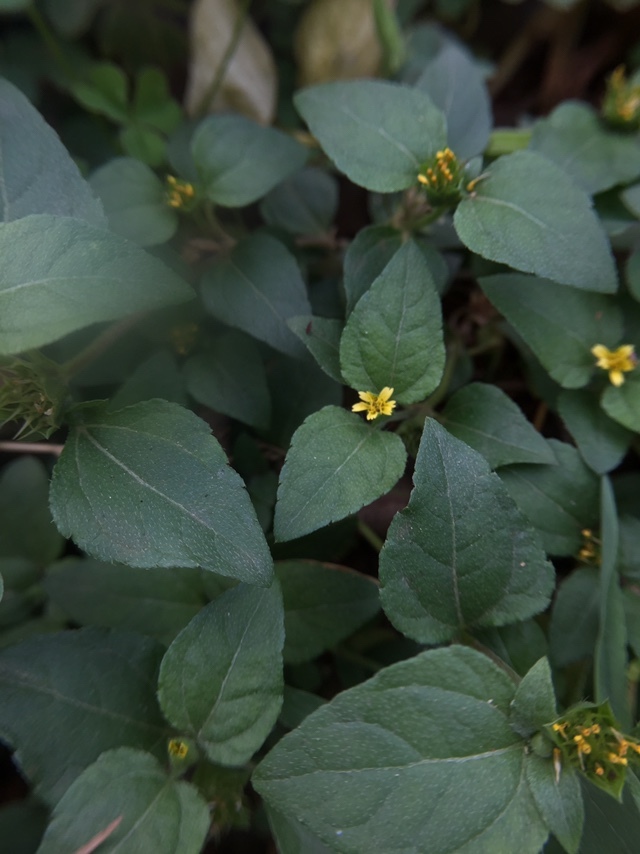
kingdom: Plantae
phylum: Tracheophyta
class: Magnoliopsida
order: Asterales
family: Asteraceae
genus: Synedrella
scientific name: Synedrella nodiflora
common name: Nodeweed
